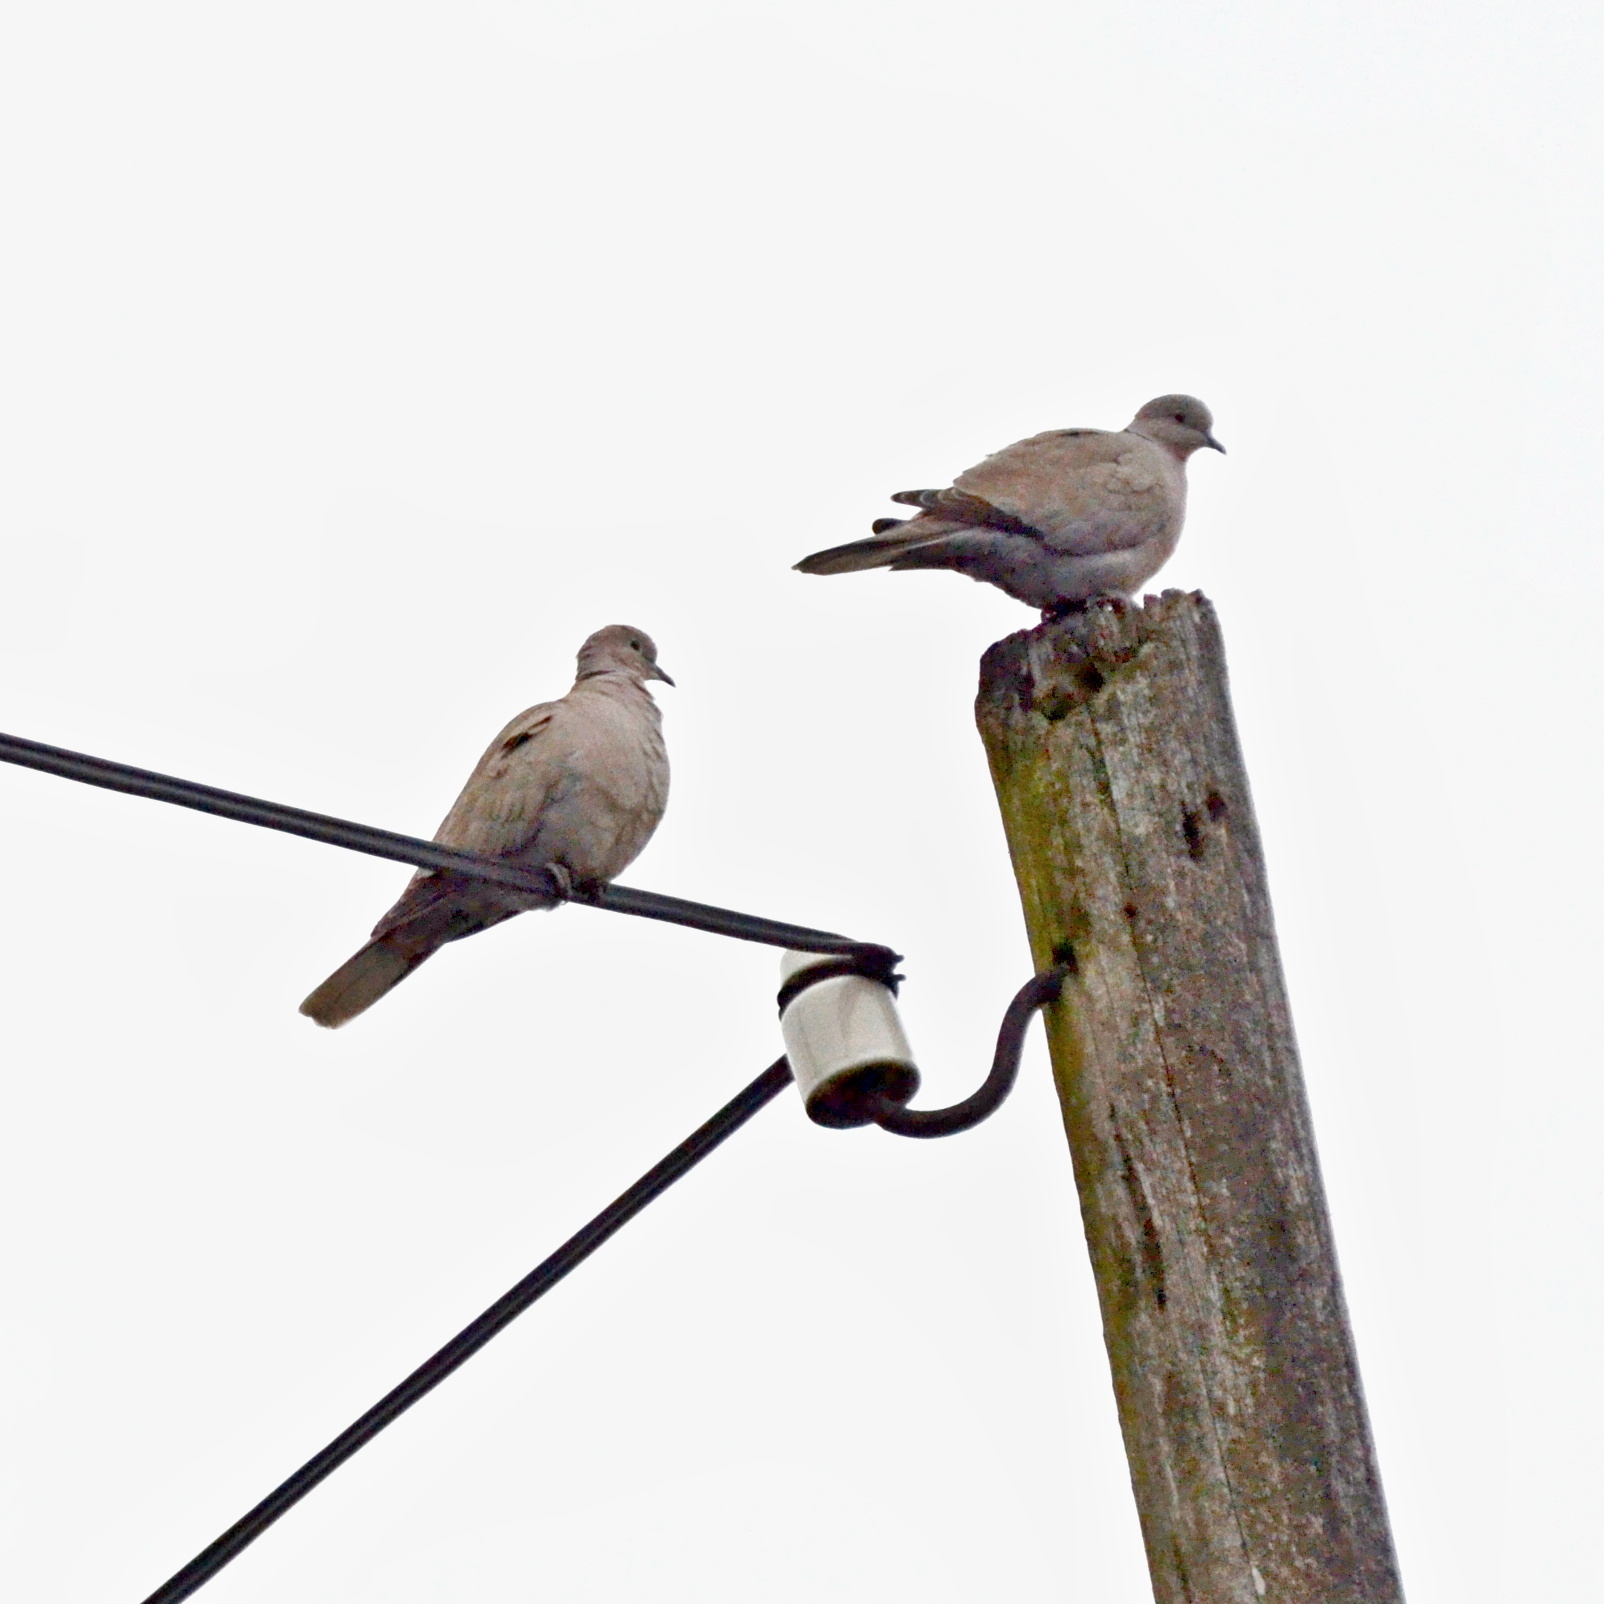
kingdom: Animalia
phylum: Chordata
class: Aves
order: Columbiformes
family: Columbidae
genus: Streptopelia
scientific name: Streptopelia decaocto
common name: Eurasian collared dove
